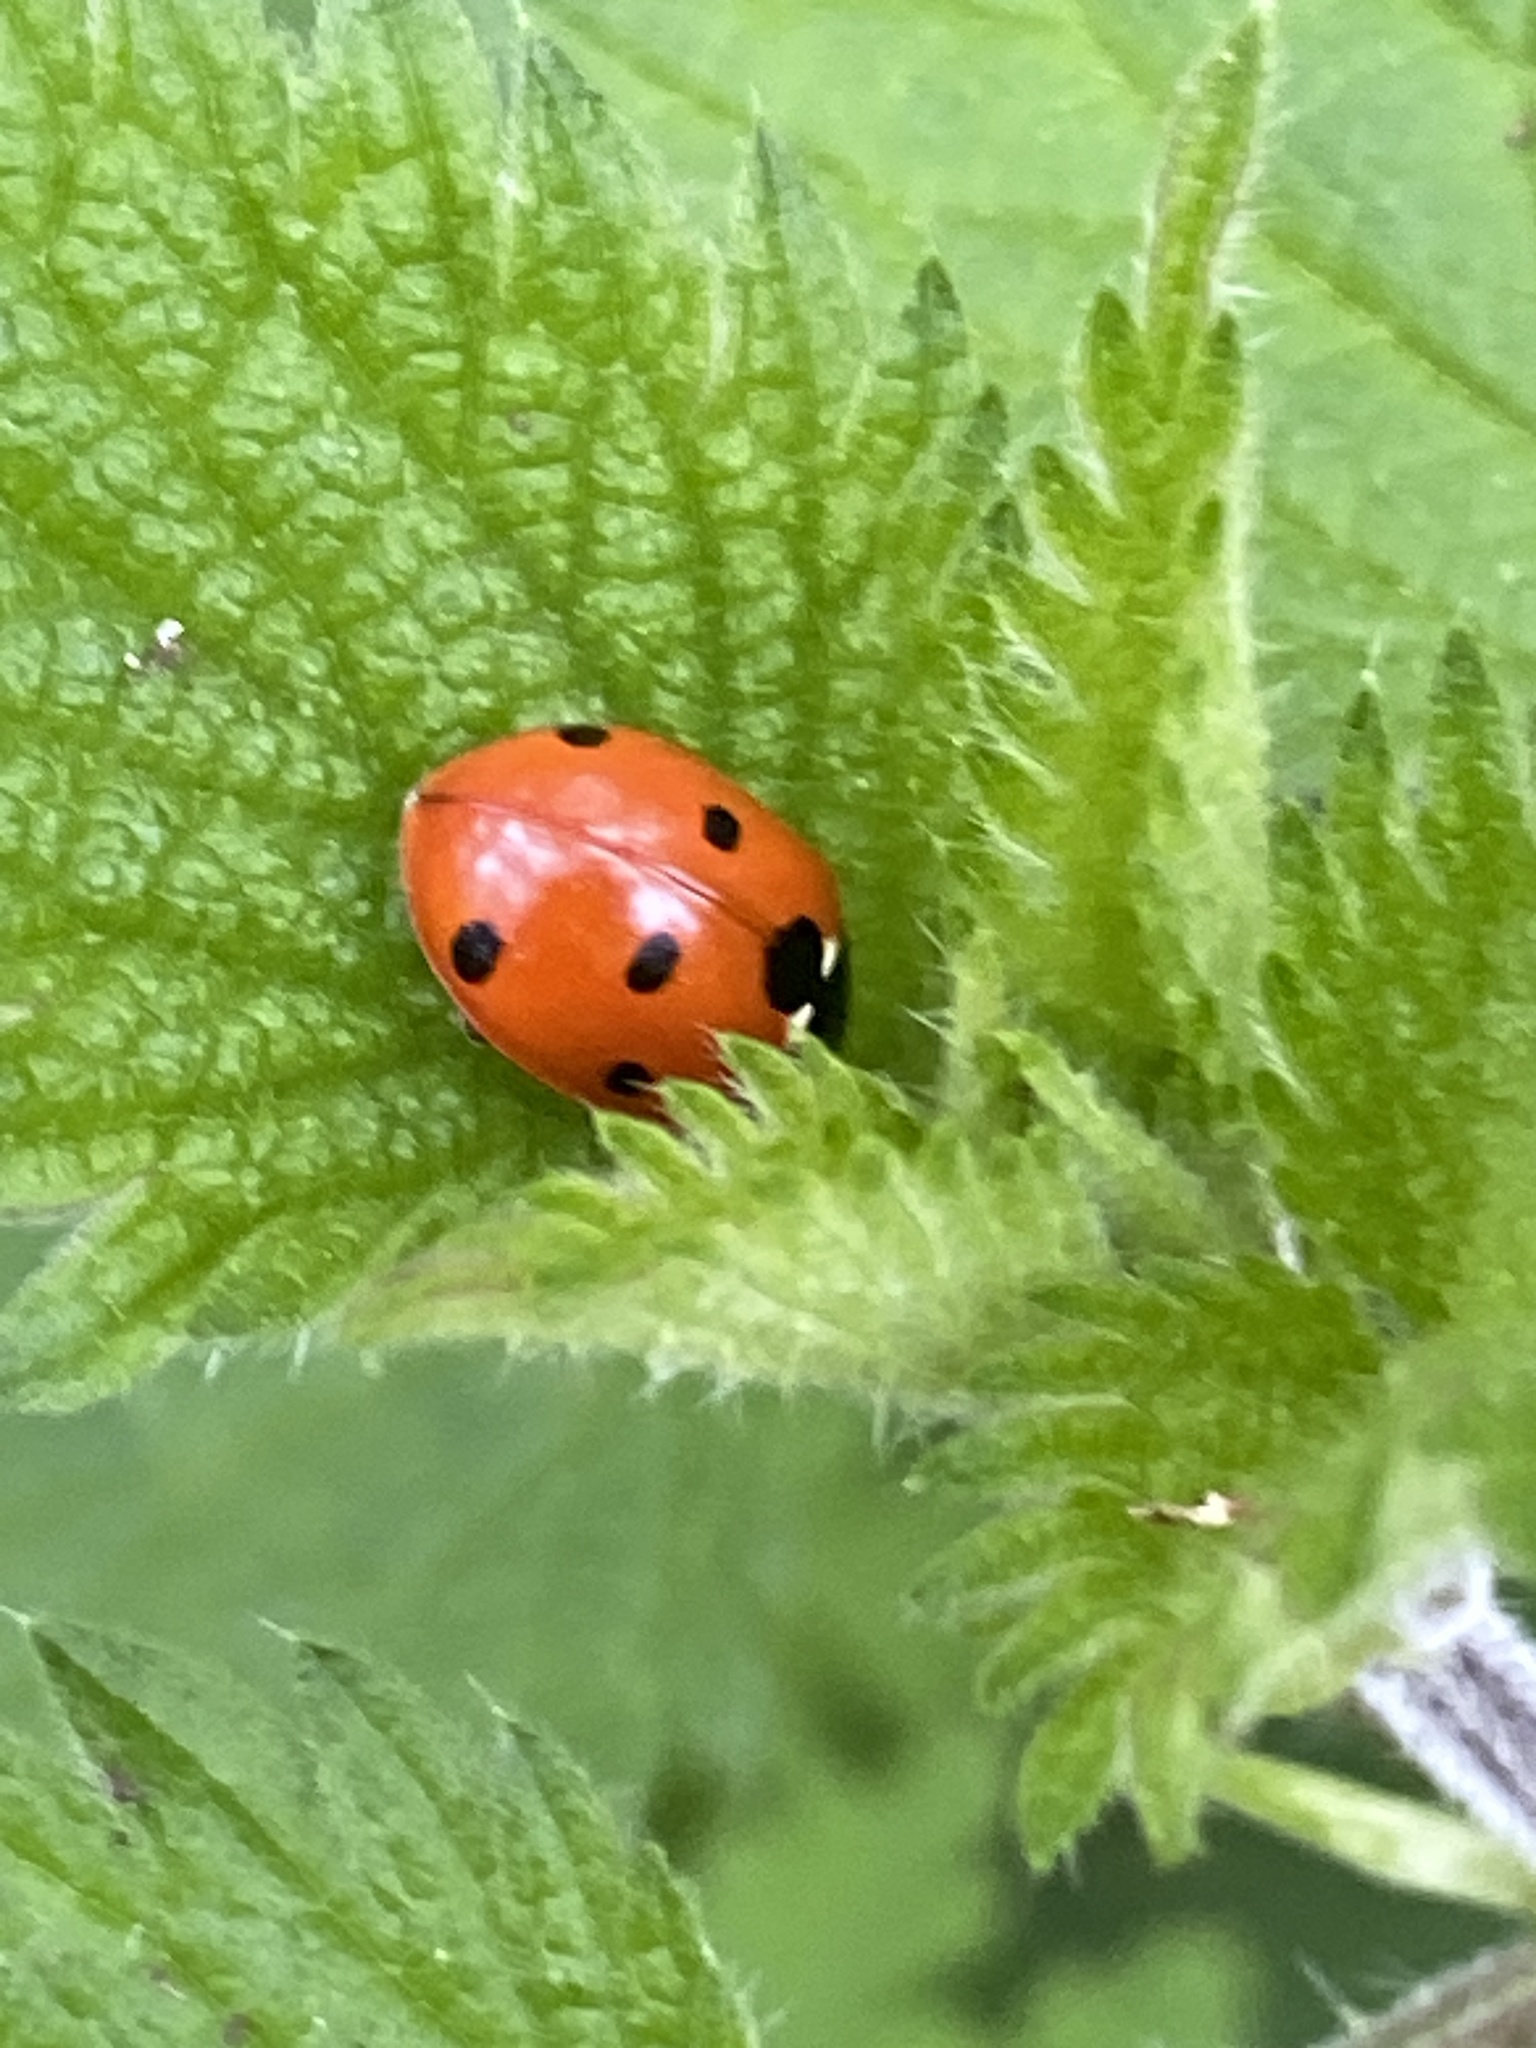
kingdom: Animalia
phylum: Arthropoda
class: Insecta
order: Coleoptera
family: Coccinellidae
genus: Coccinella
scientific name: Coccinella septempunctata
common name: Sevenspotted lady beetle
